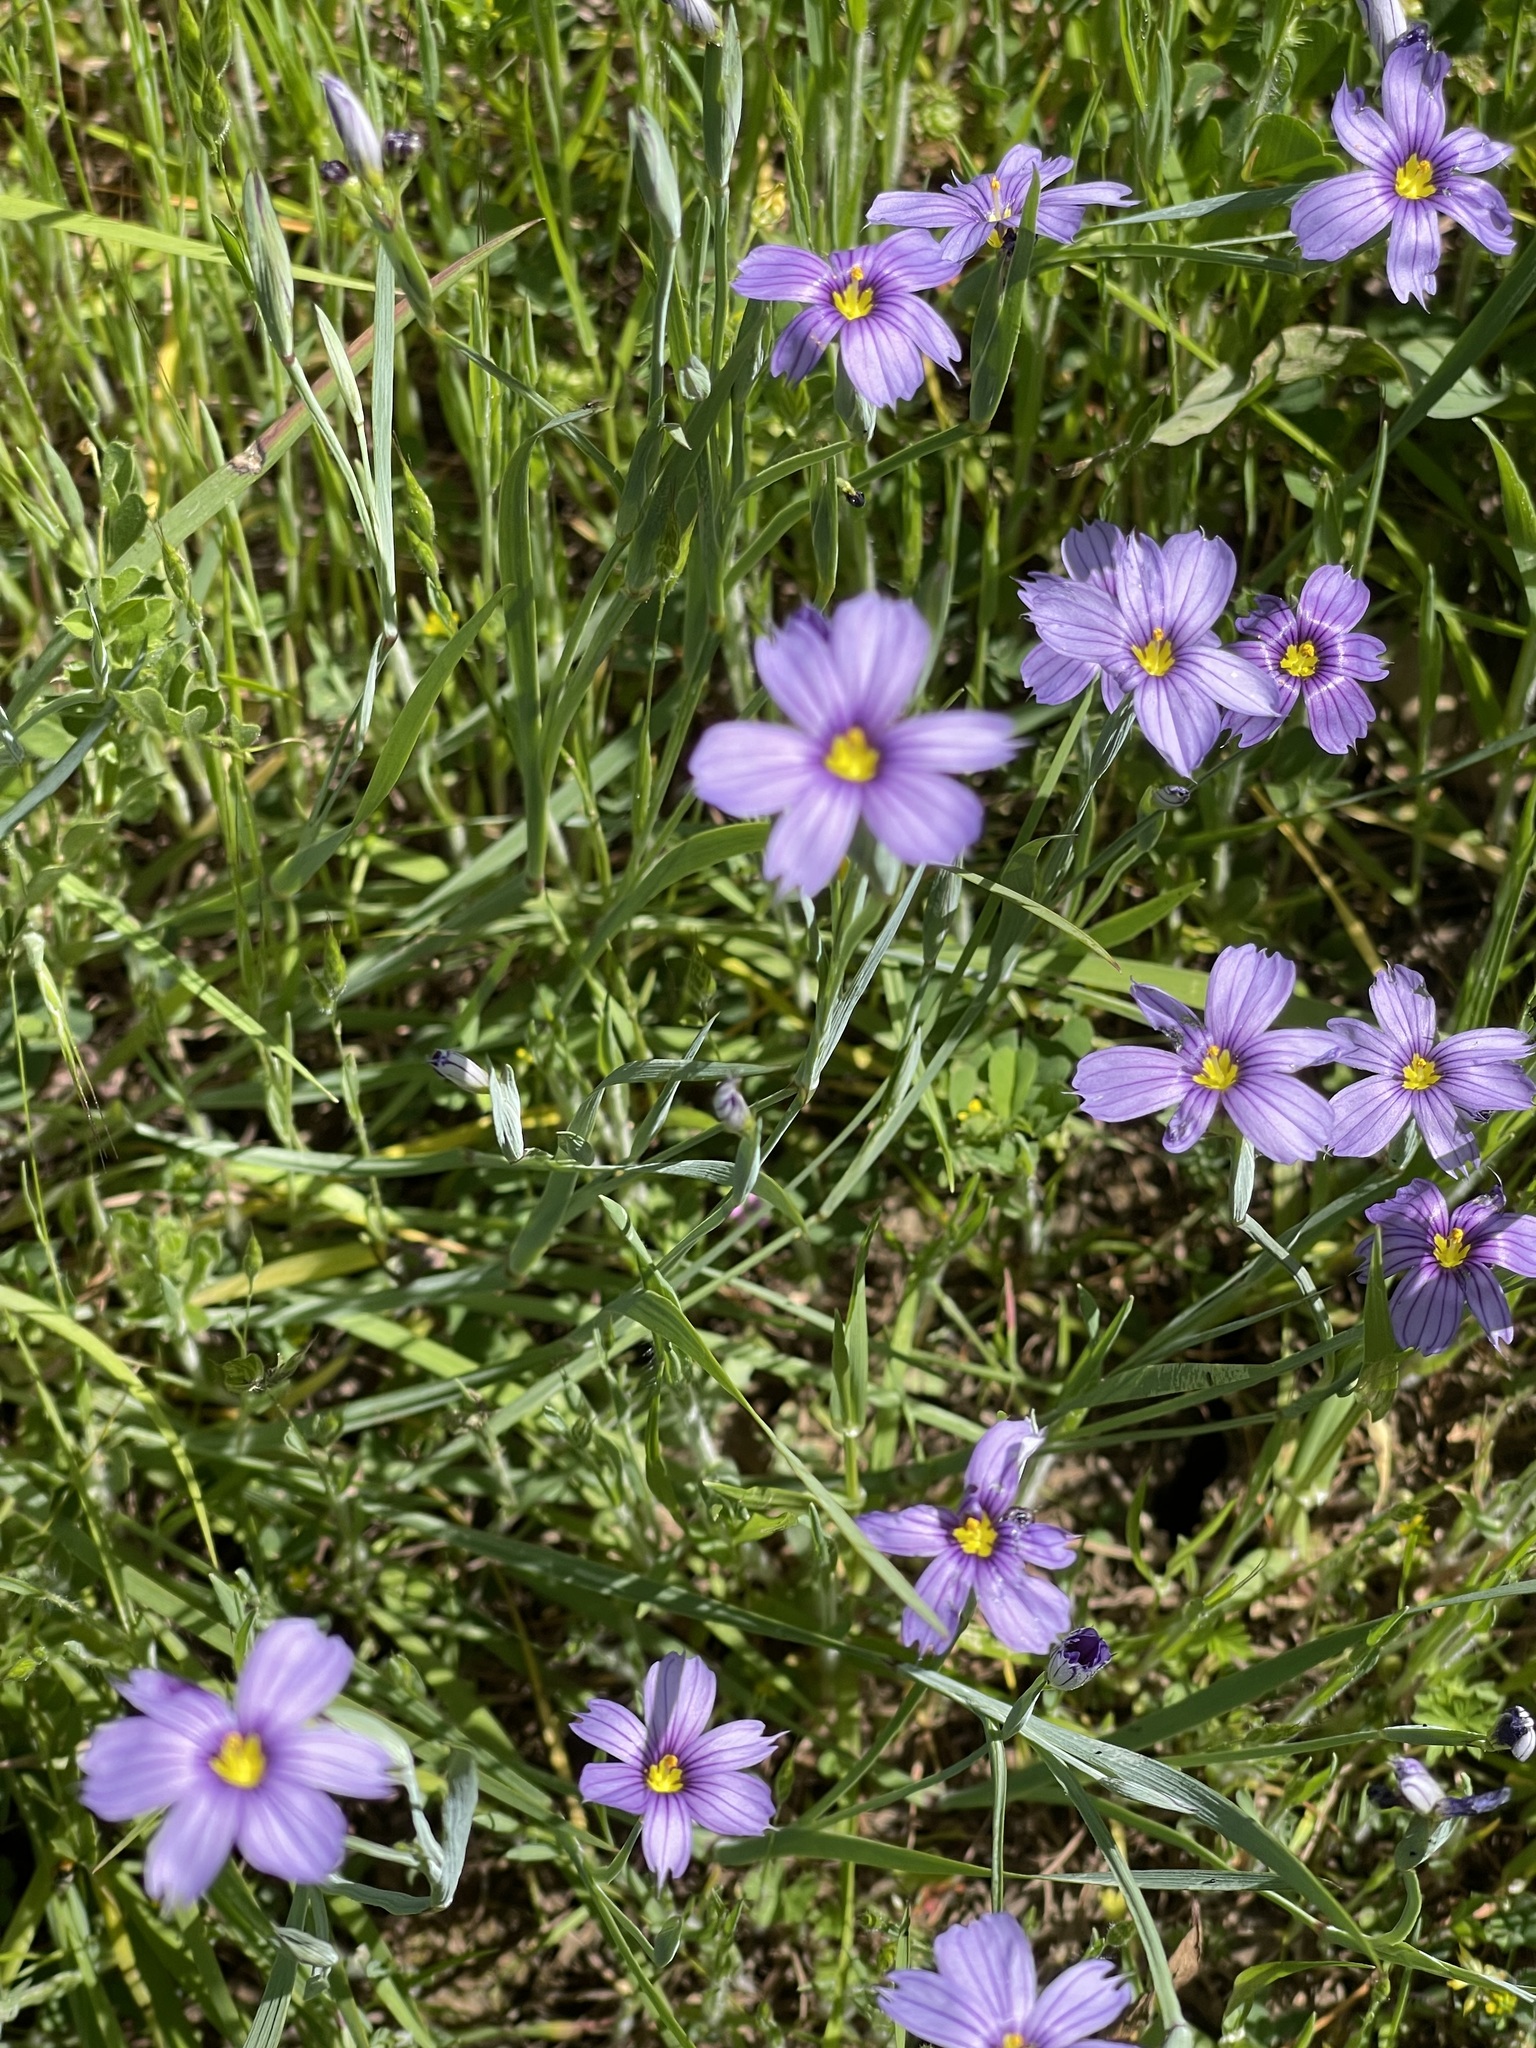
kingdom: Plantae
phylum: Tracheophyta
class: Liliopsida
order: Asparagales
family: Iridaceae
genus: Sisyrinchium
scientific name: Sisyrinchium bellum
